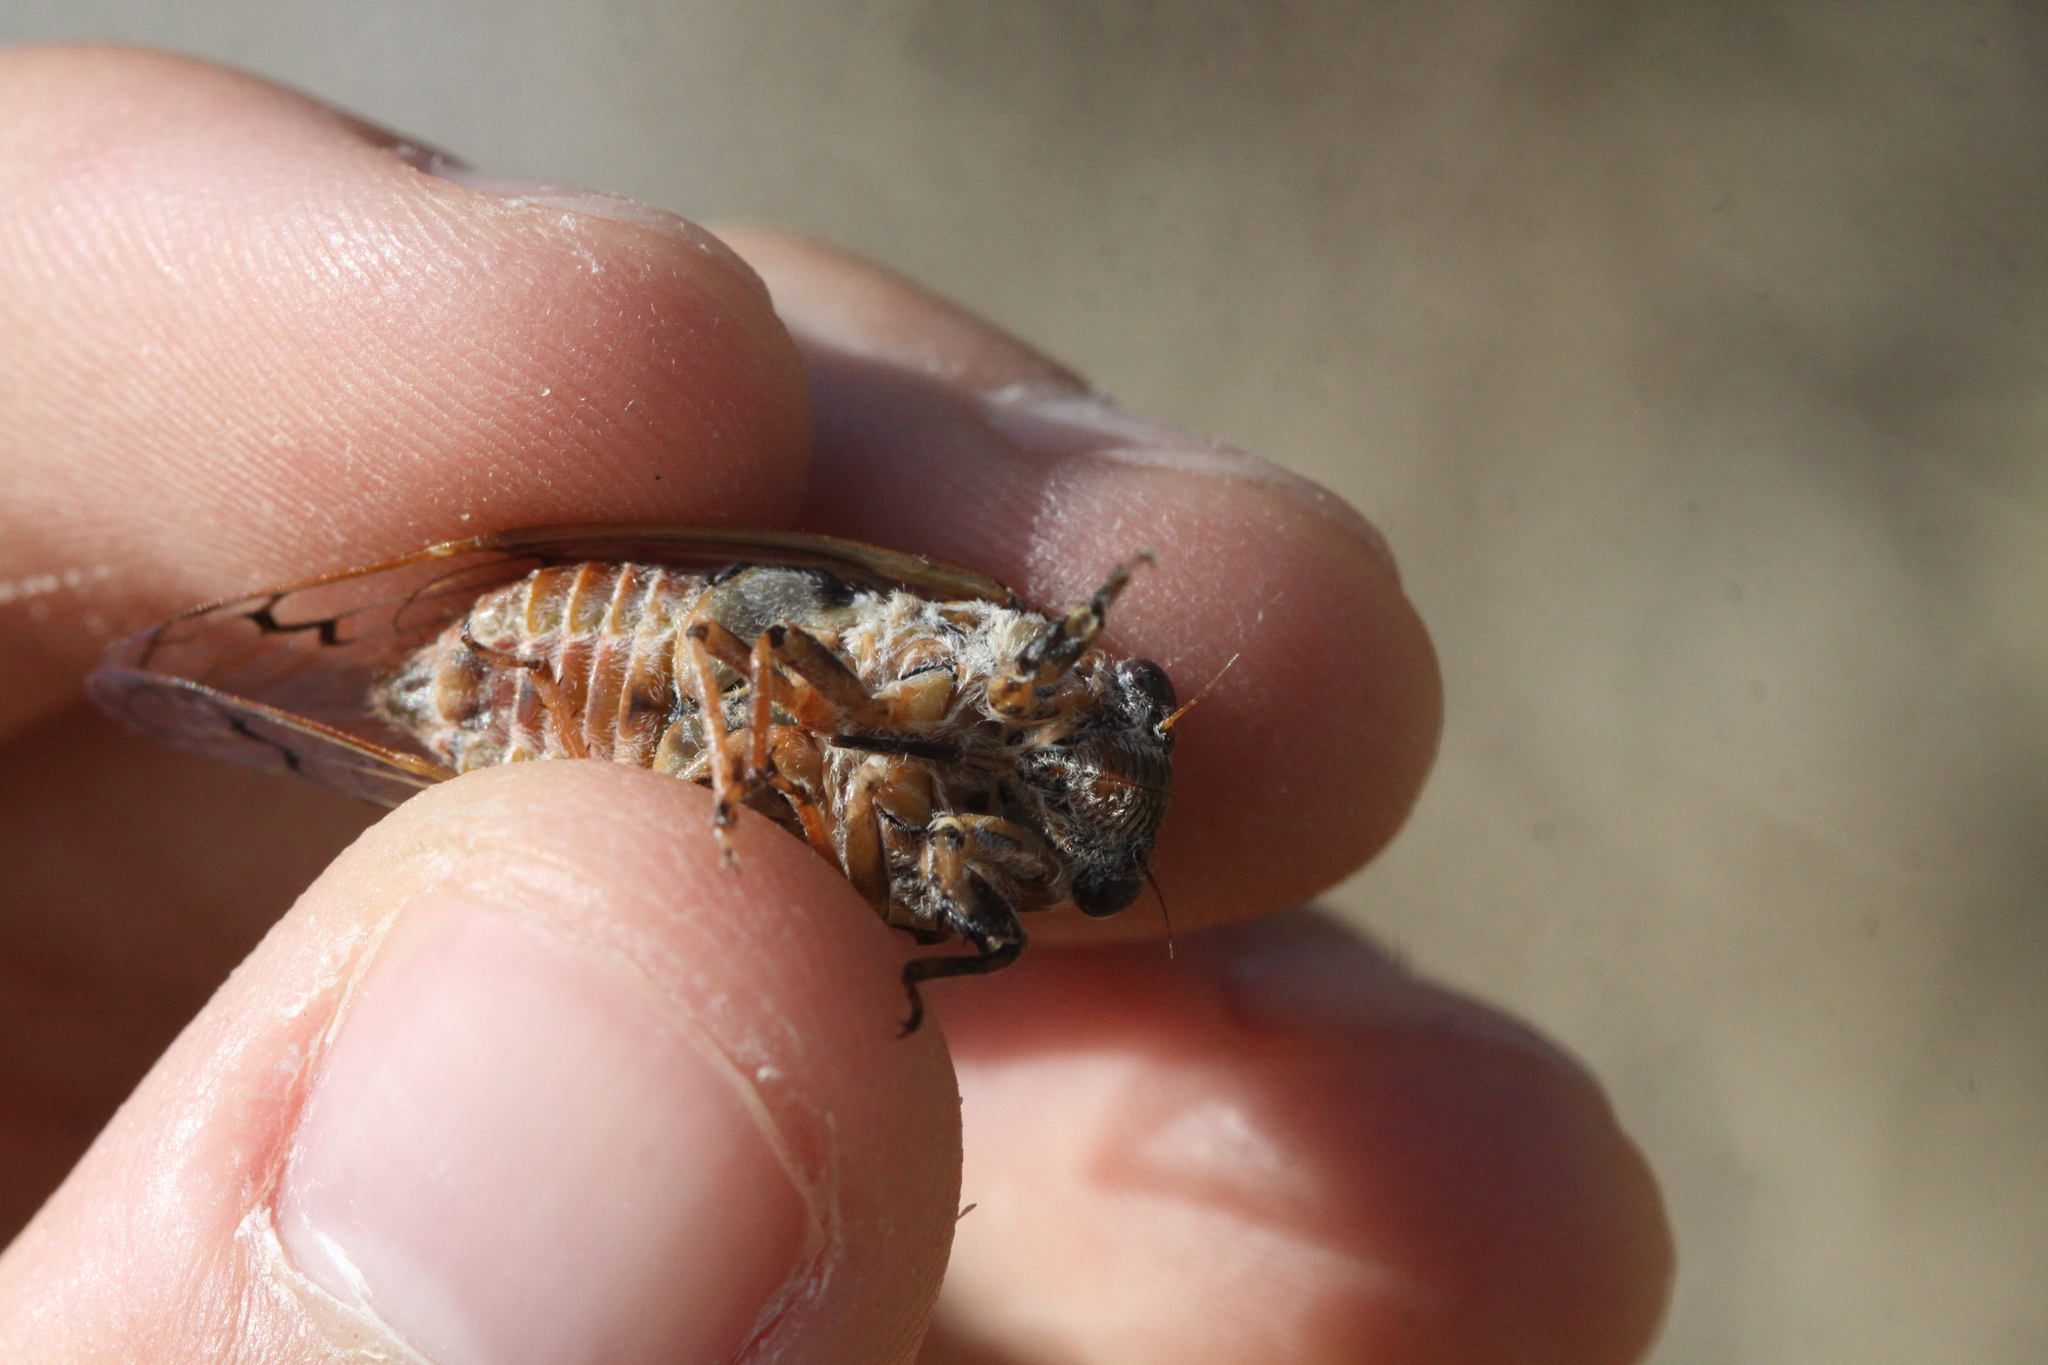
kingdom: Animalia
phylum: Arthropoda
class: Insecta
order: Hemiptera
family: Cicadidae
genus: Cicadatra
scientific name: Cicadatra atra
